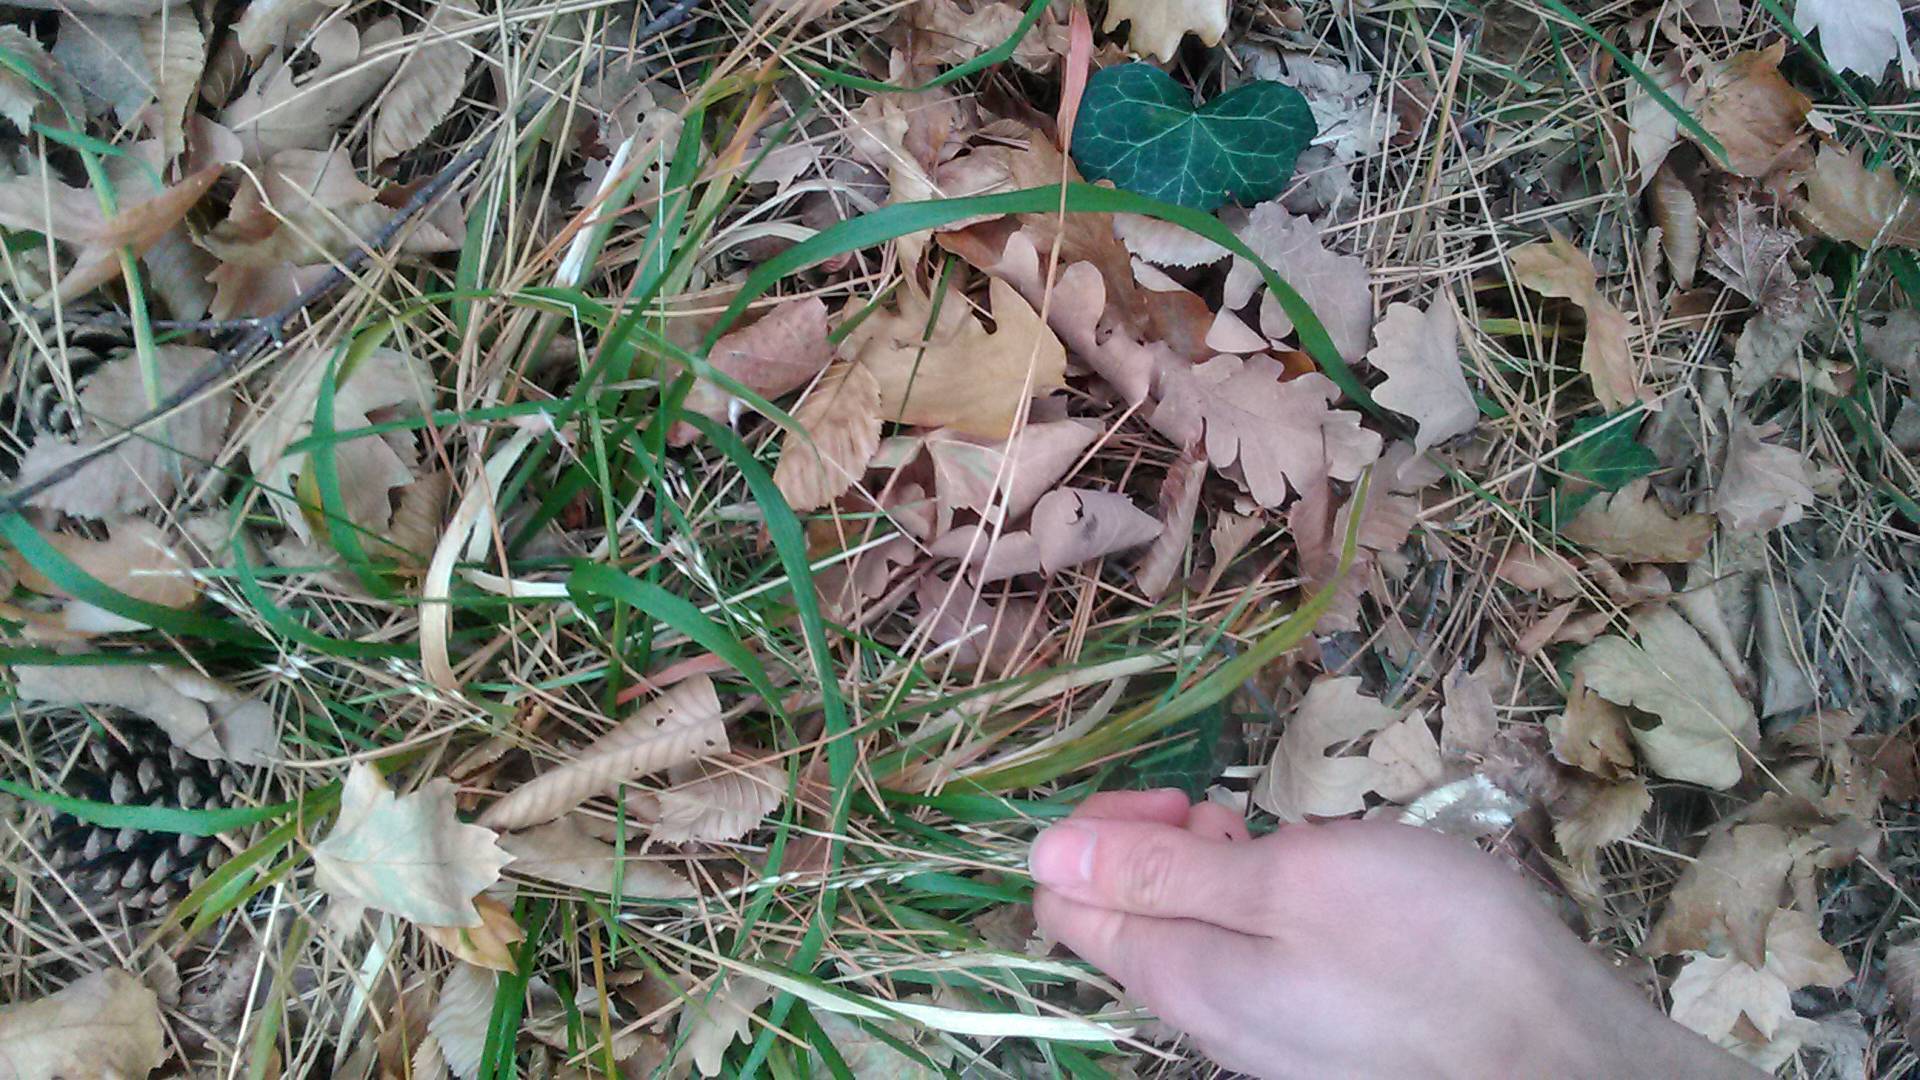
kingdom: Plantae
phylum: Tracheophyta
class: Liliopsida
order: Poales
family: Poaceae
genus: Achnatherum
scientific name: Achnatherum virescens
